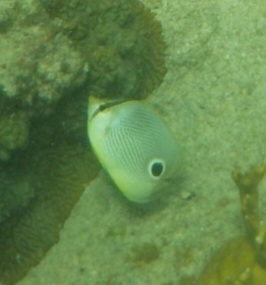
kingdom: Animalia
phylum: Chordata
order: Perciformes
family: Chaetodontidae
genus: Chaetodon
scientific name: Chaetodon capistratus
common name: Kete
